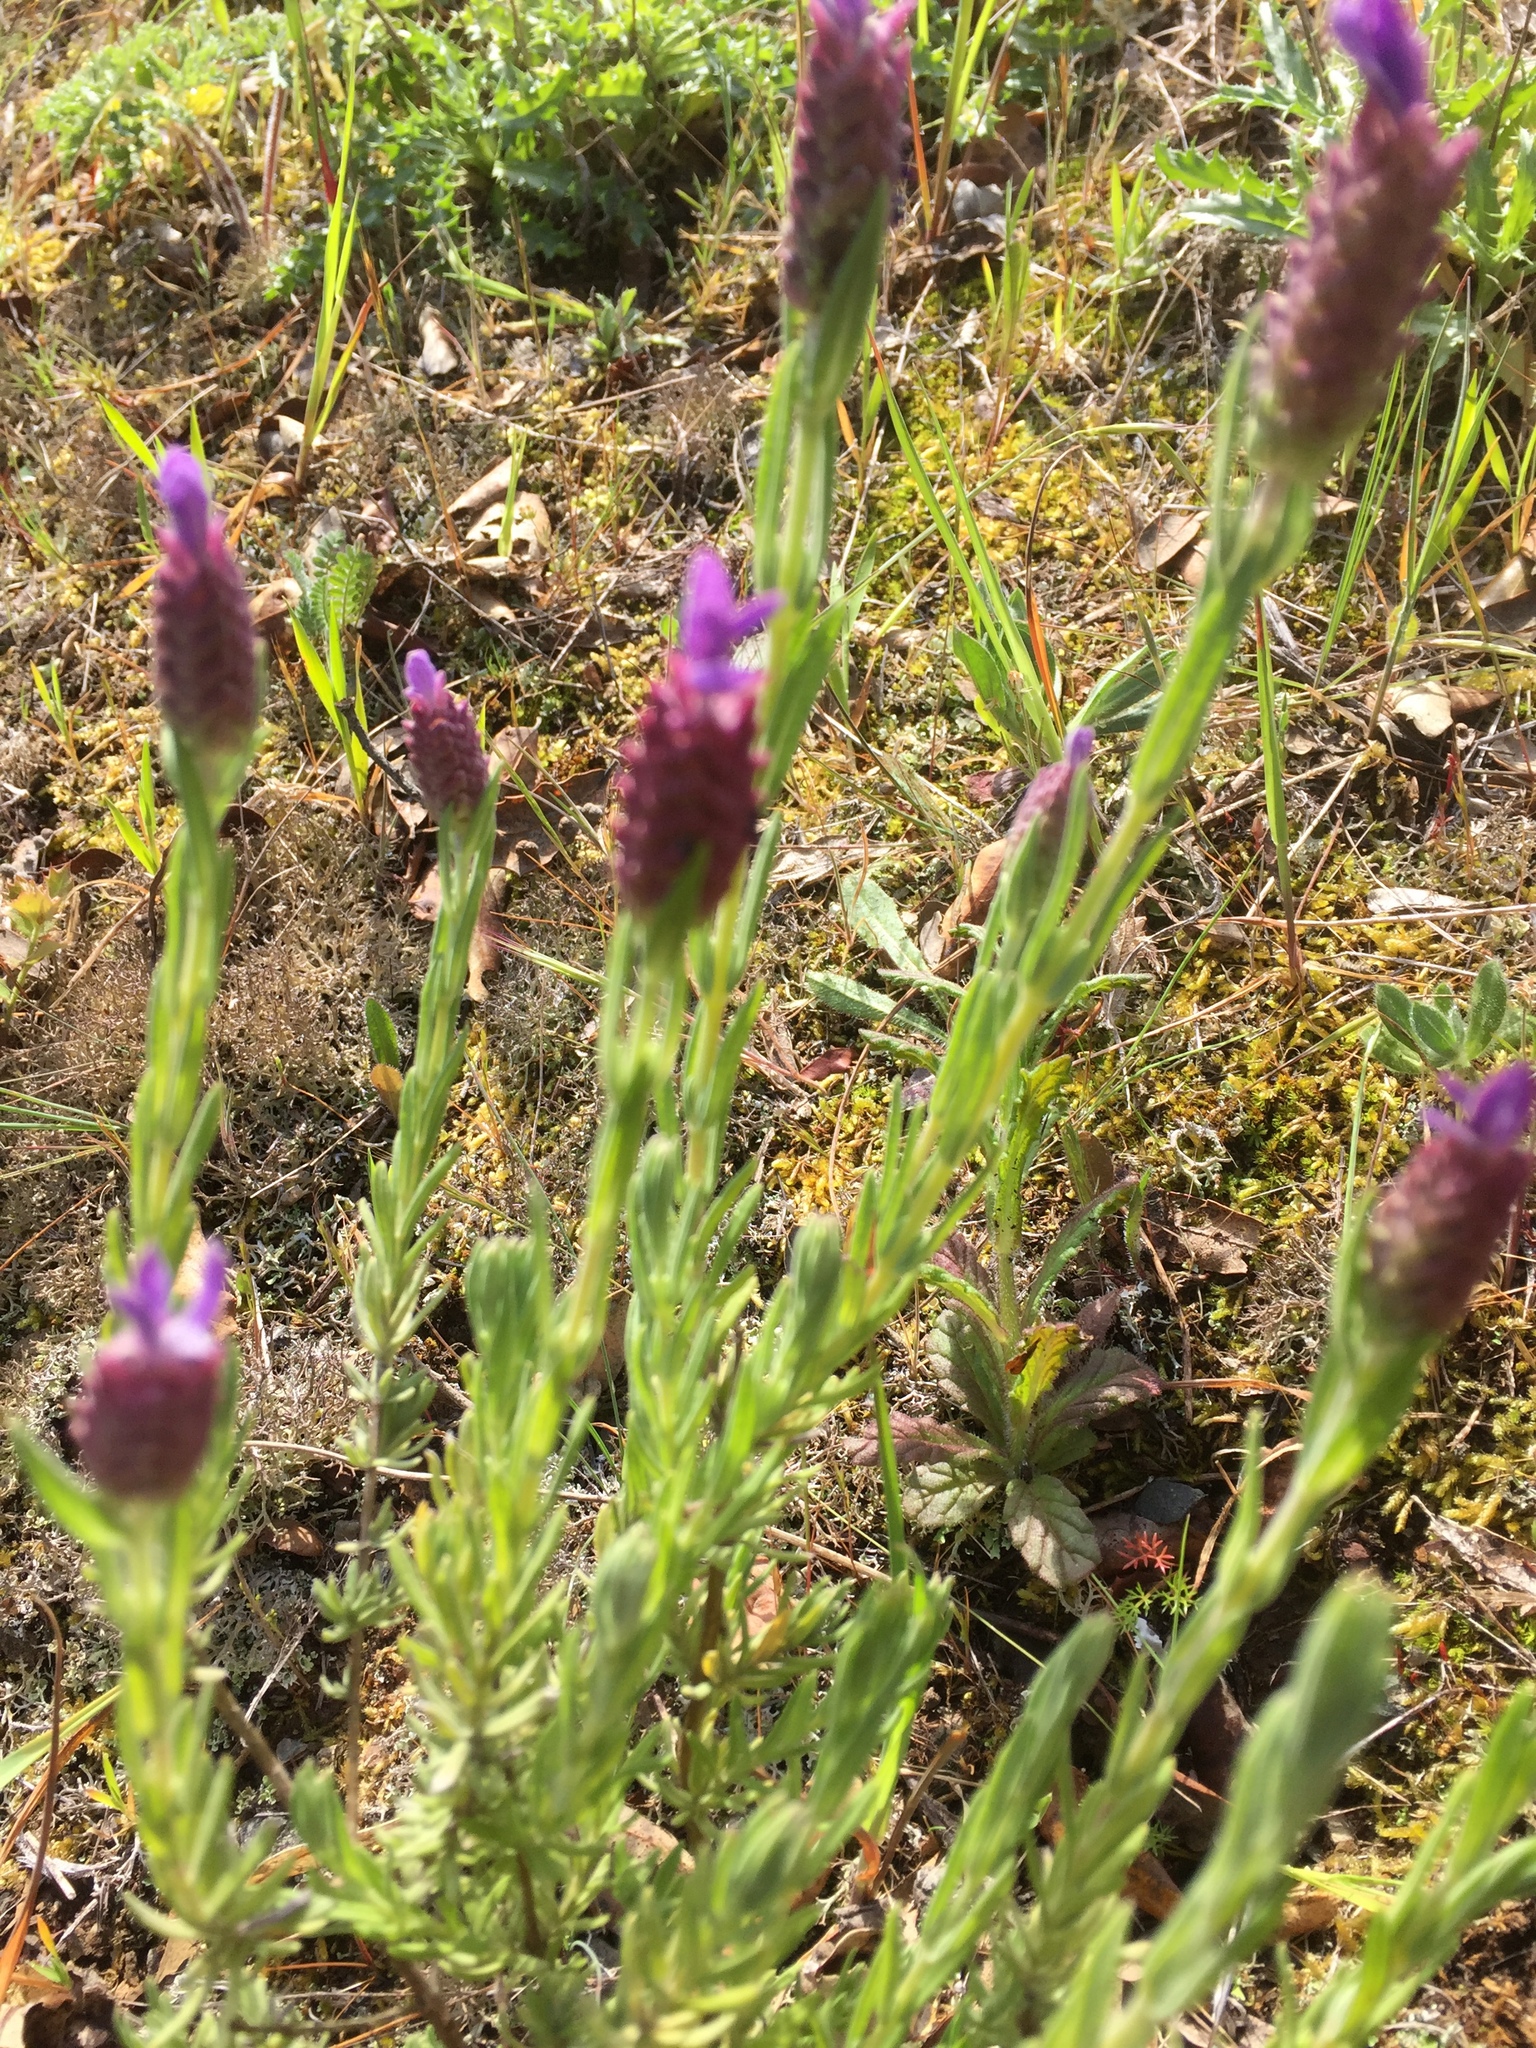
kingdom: Plantae
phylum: Tracheophyta
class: Magnoliopsida
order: Lamiales
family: Lamiaceae
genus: Lavandula
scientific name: Lavandula stoechas
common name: French lavender
